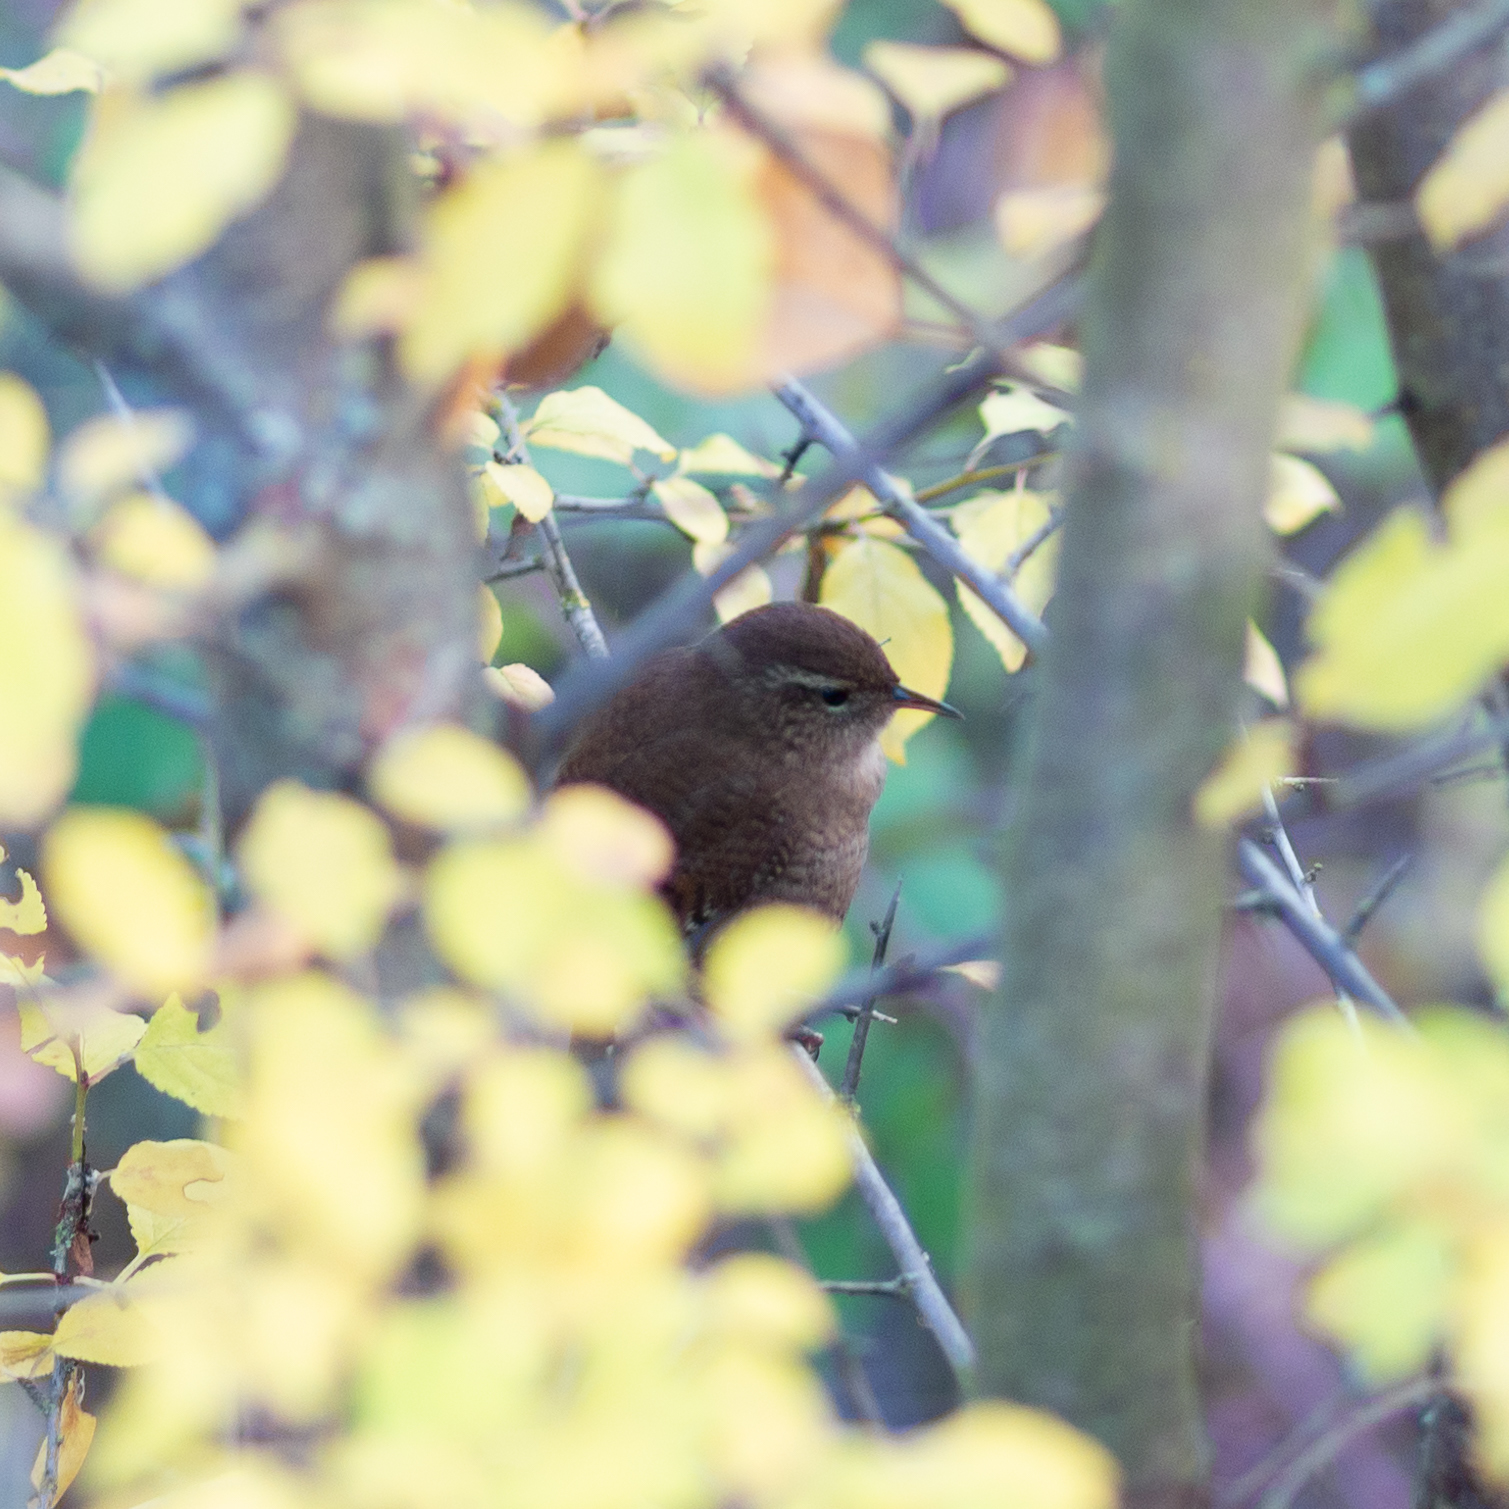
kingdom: Animalia
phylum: Chordata
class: Aves
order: Passeriformes
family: Troglodytidae
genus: Troglodytes
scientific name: Troglodytes troglodytes
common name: Eurasian wren
